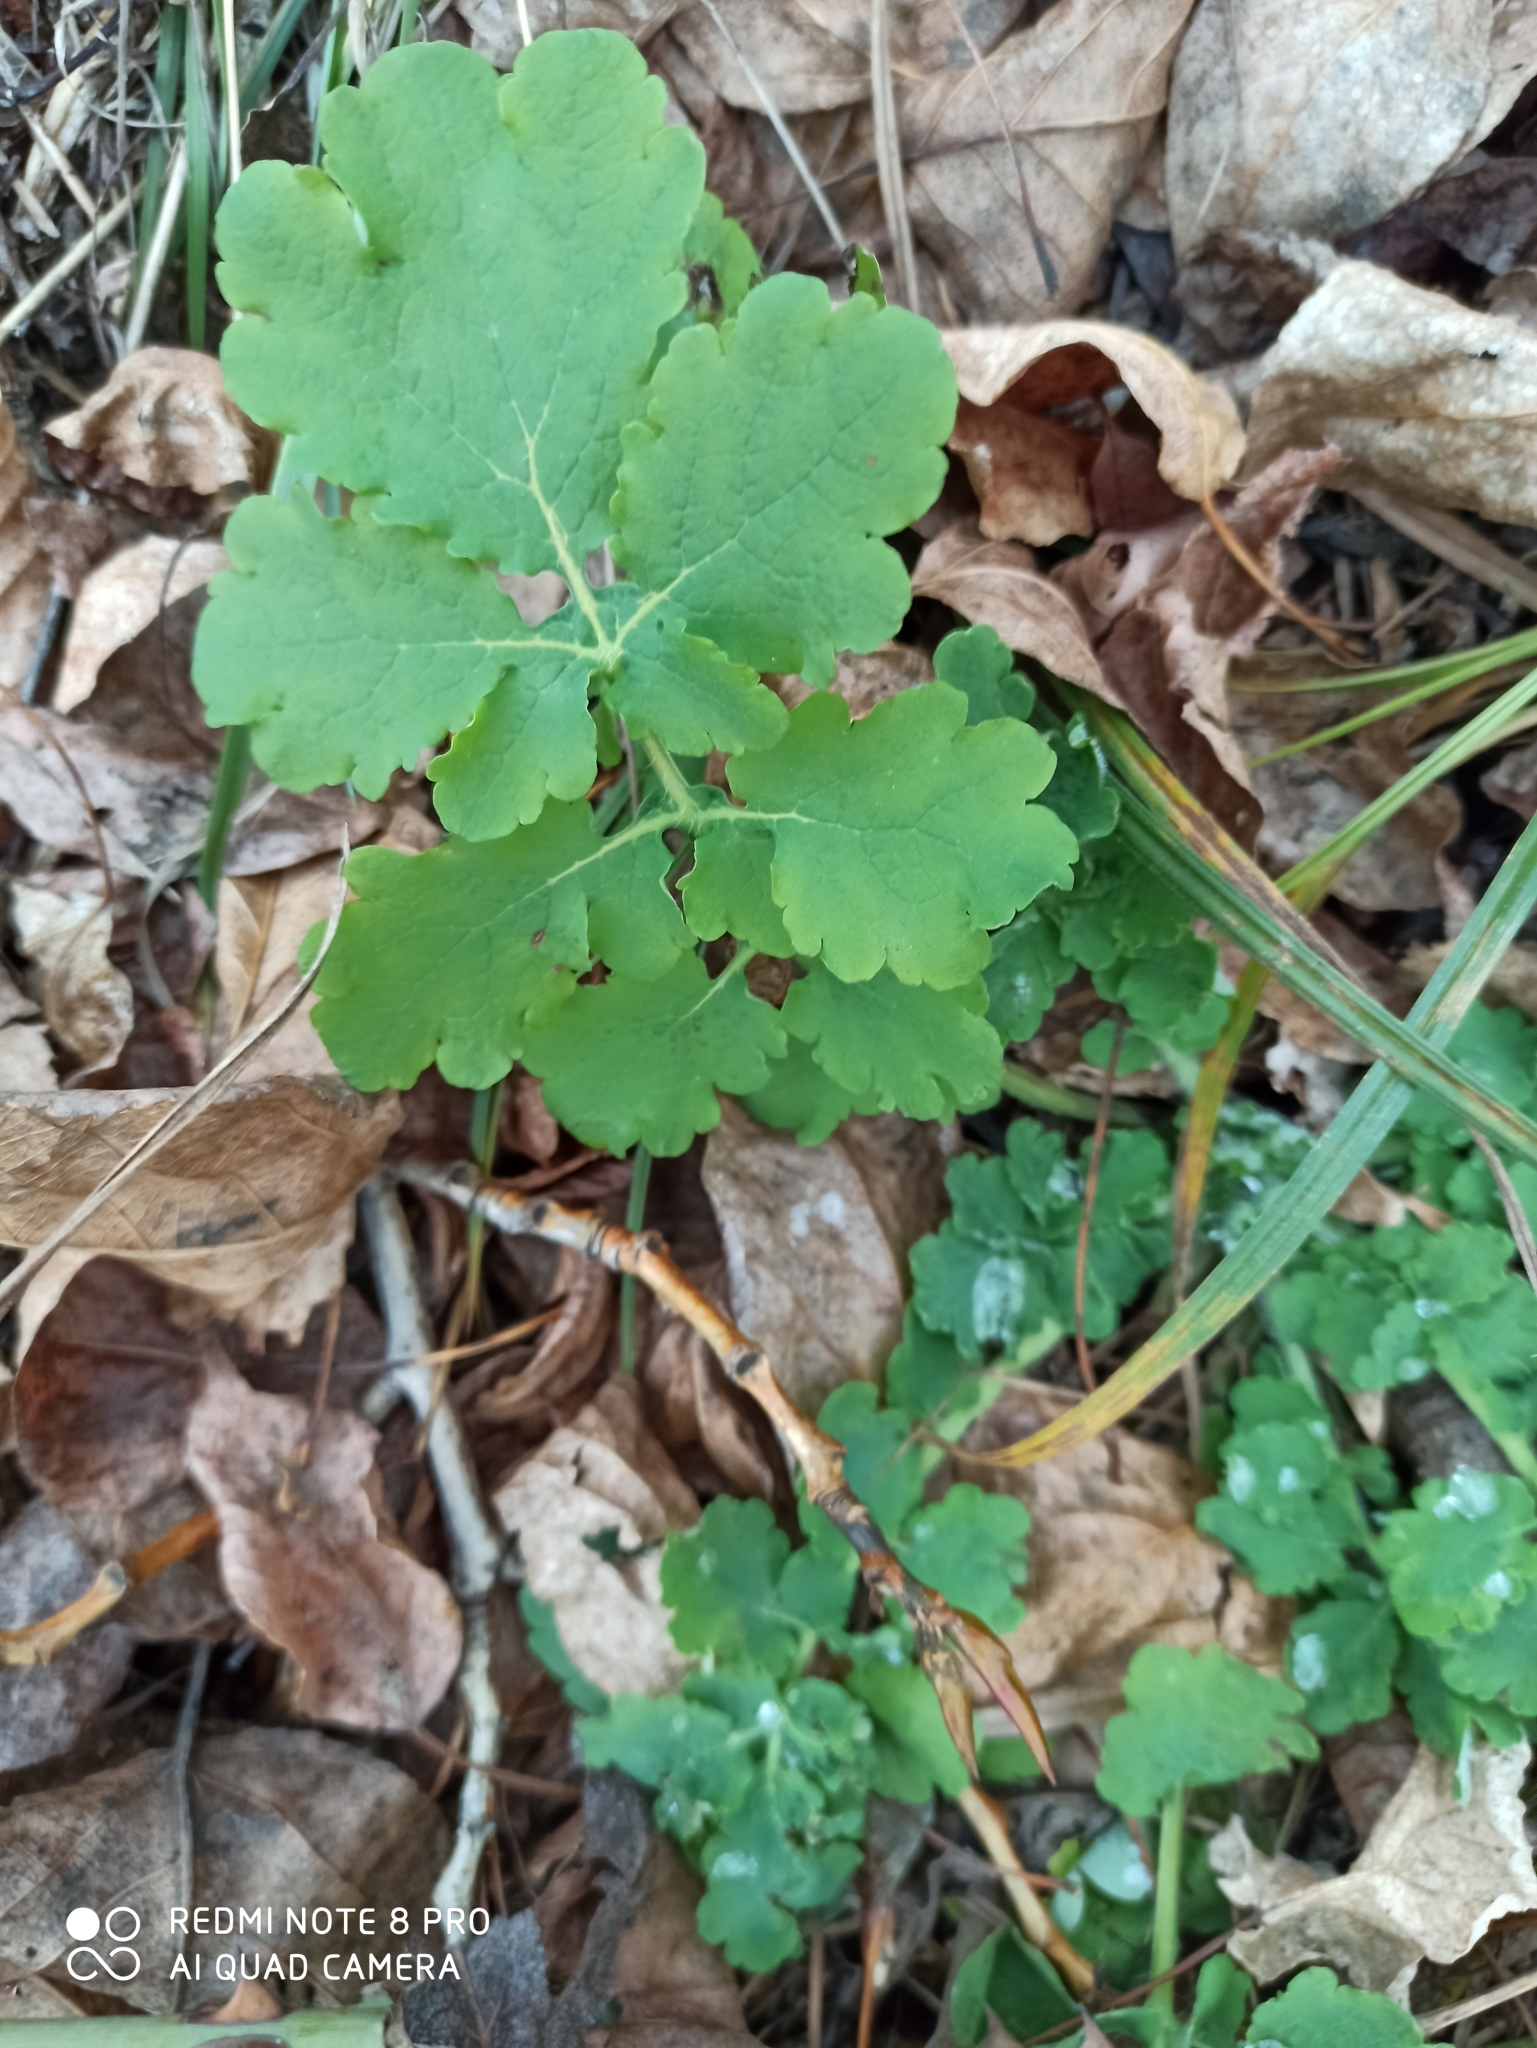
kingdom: Plantae
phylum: Tracheophyta
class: Magnoliopsida
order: Ranunculales
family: Papaveraceae
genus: Chelidonium
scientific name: Chelidonium majus
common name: Greater celandine
